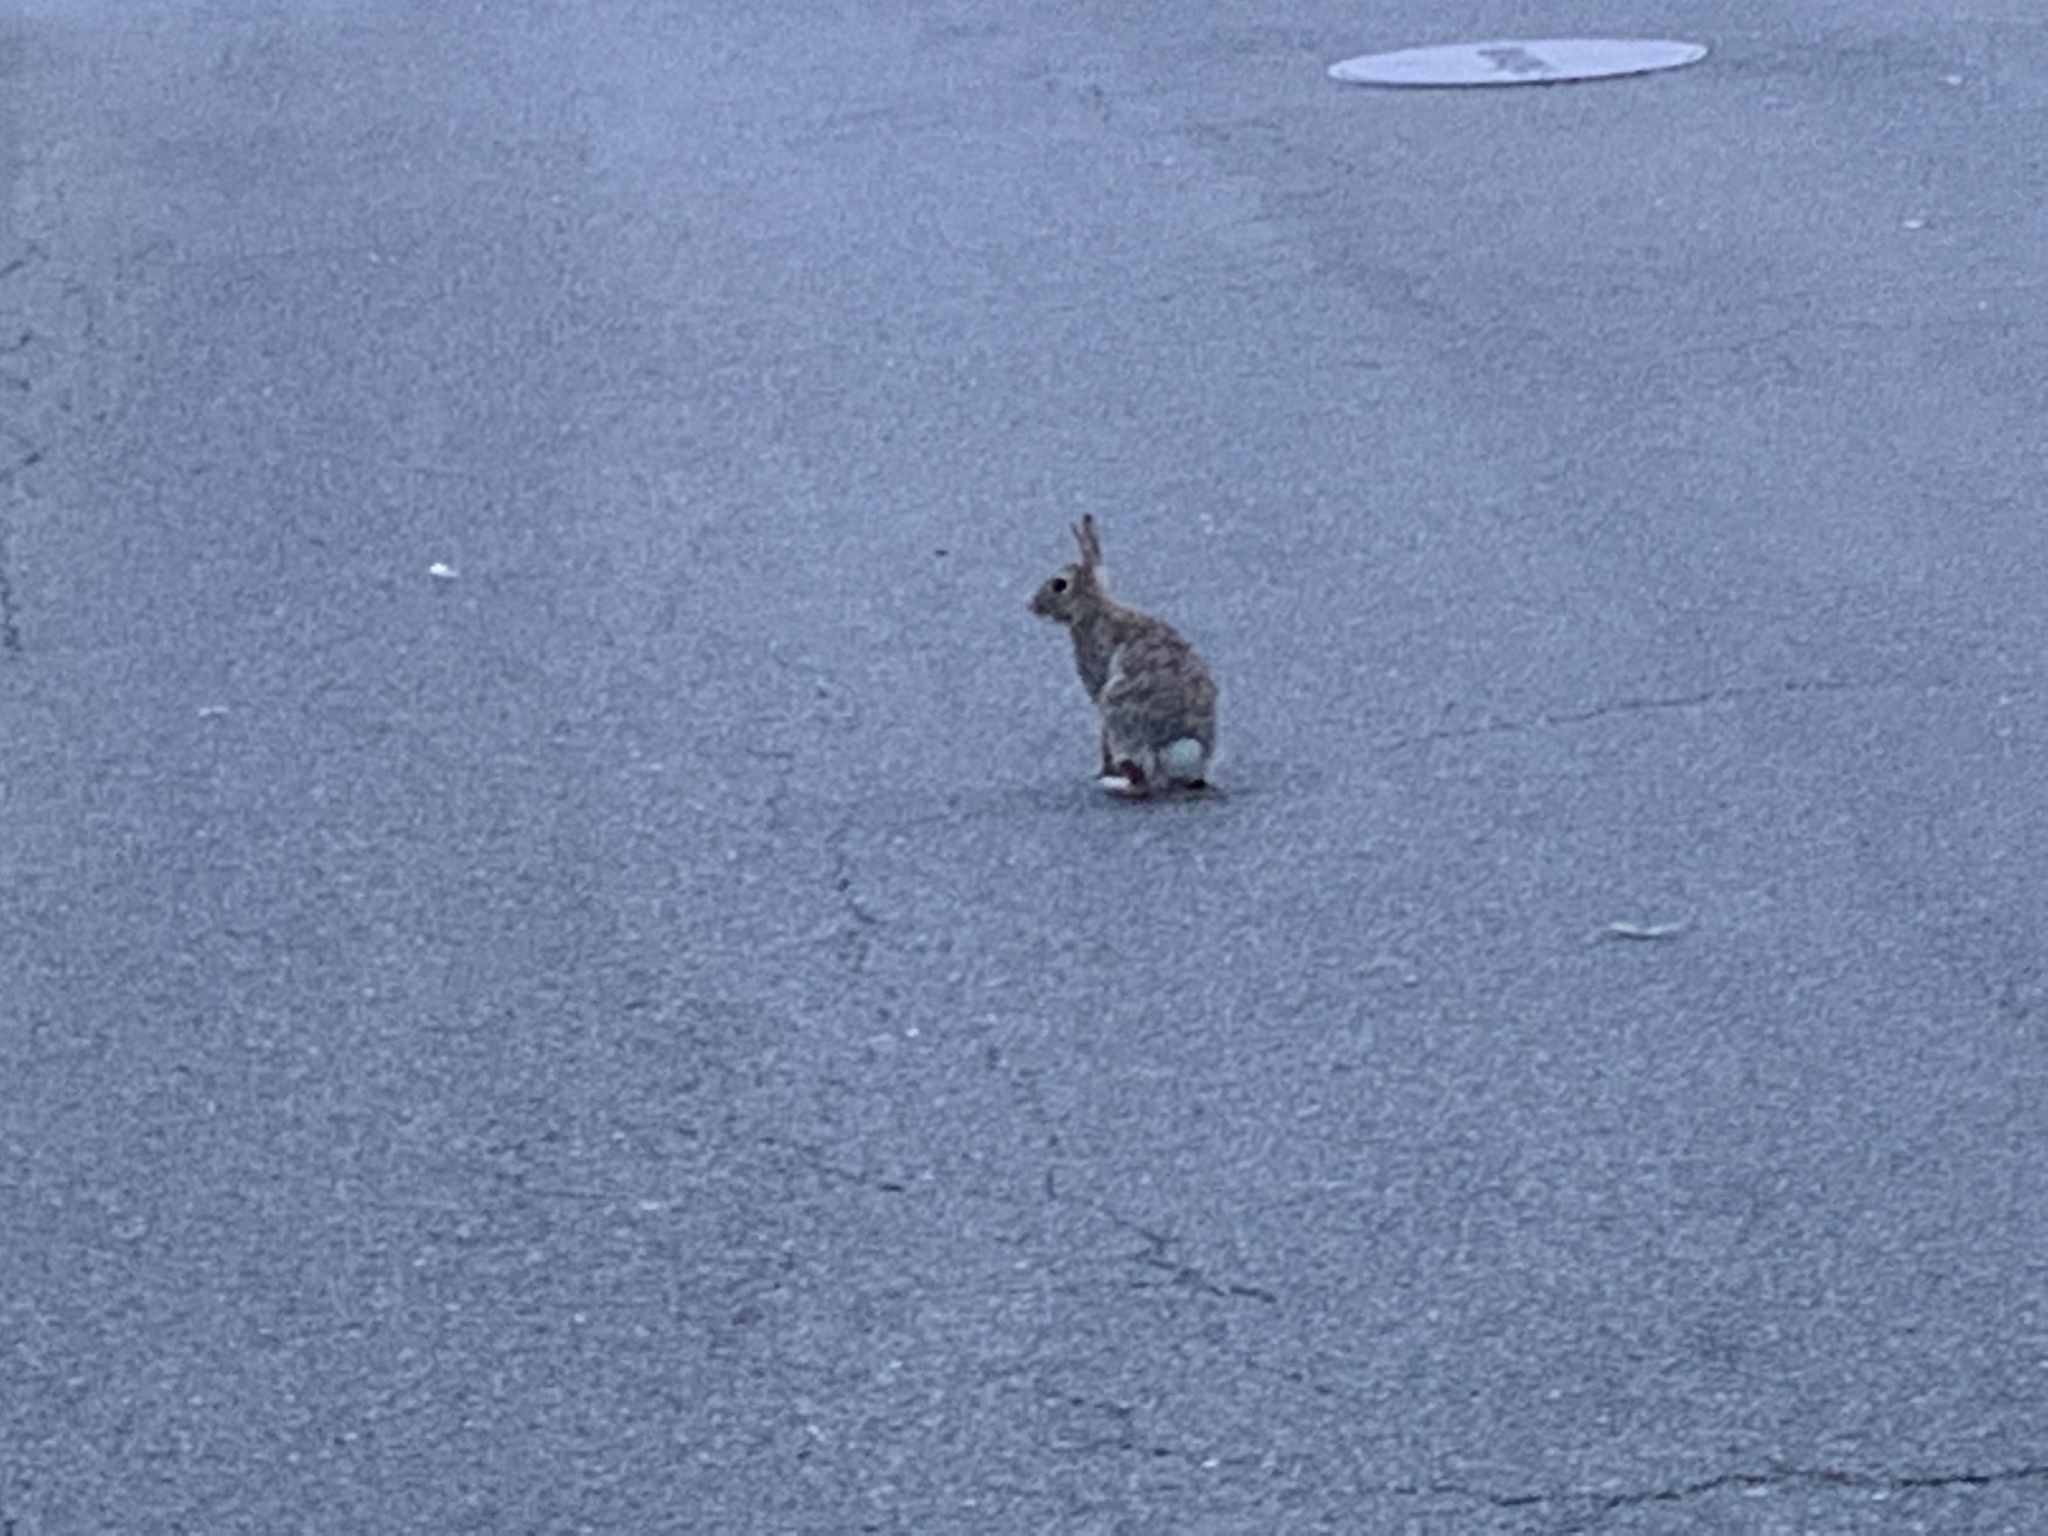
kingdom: Animalia
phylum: Chordata
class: Mammalia
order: Lagomorpha
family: Leporidae
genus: Sylvilagus
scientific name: Sylvilagus floridanus
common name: Eastern cottontail
